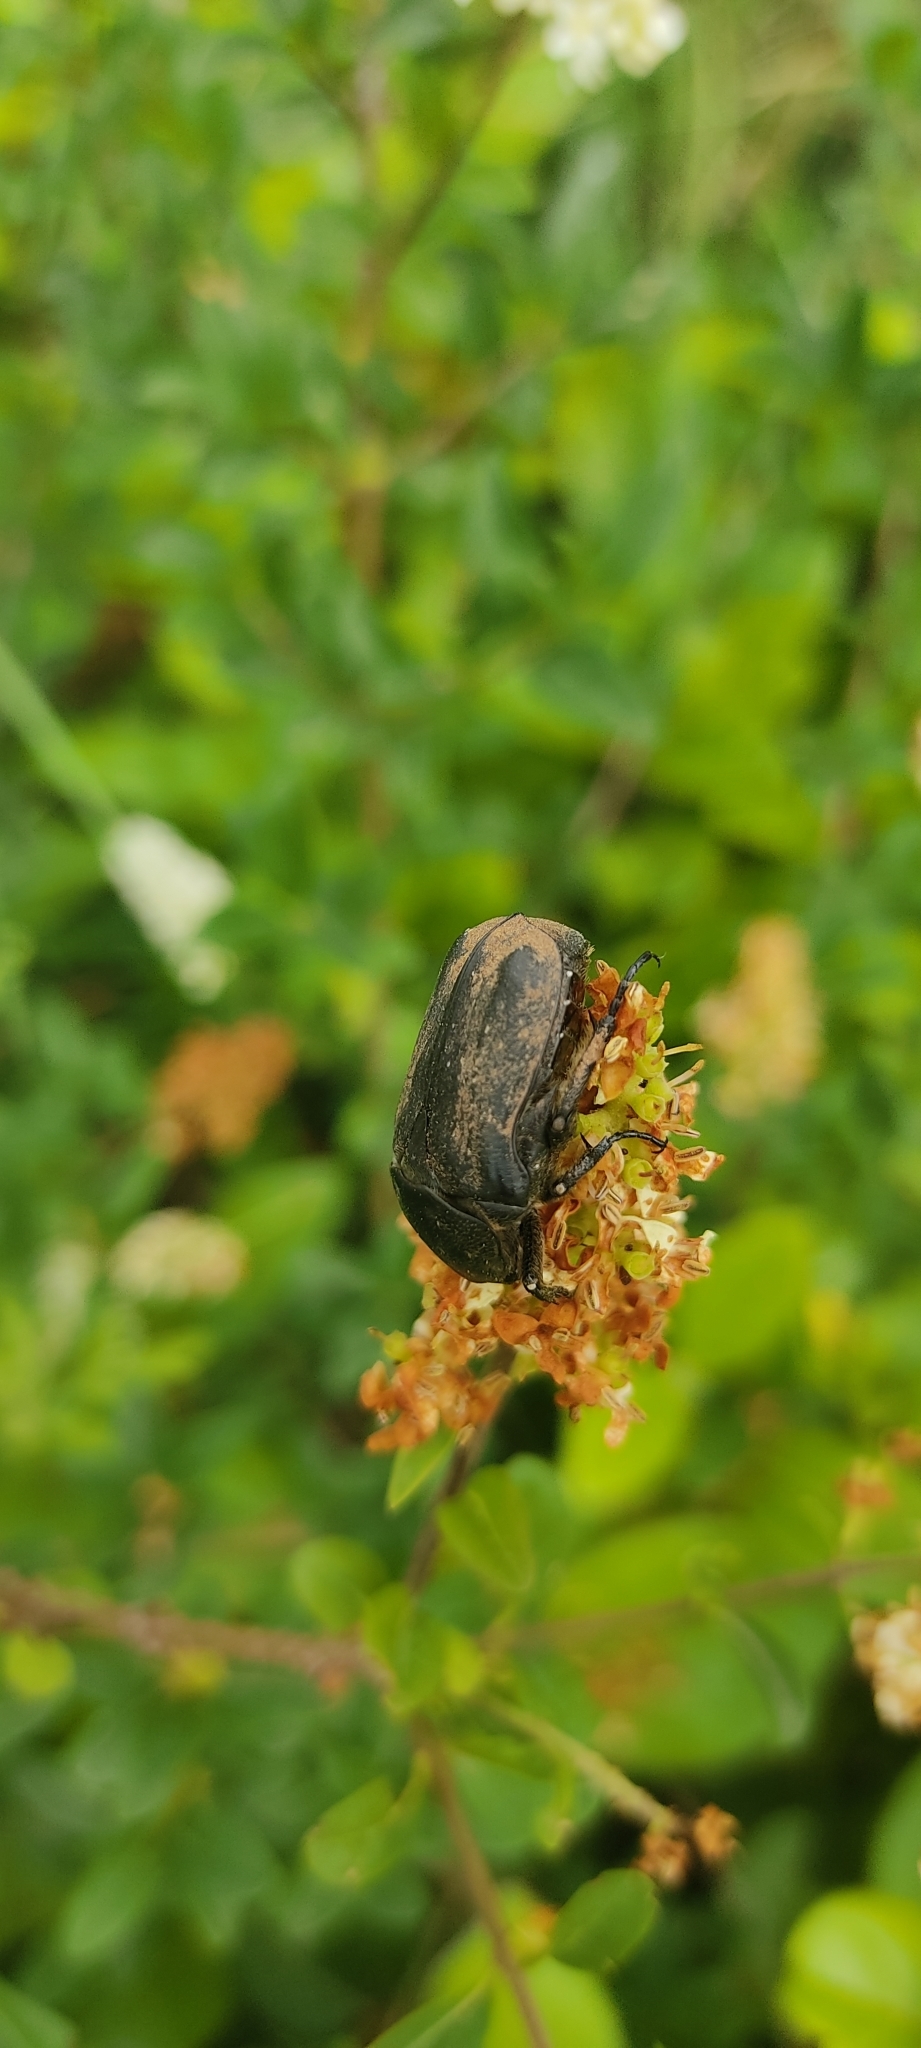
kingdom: Animalia
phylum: Arthropoda
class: Insecta
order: Coleoptera
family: Scarabaeidae
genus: Protaetia
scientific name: Protaetia morio
